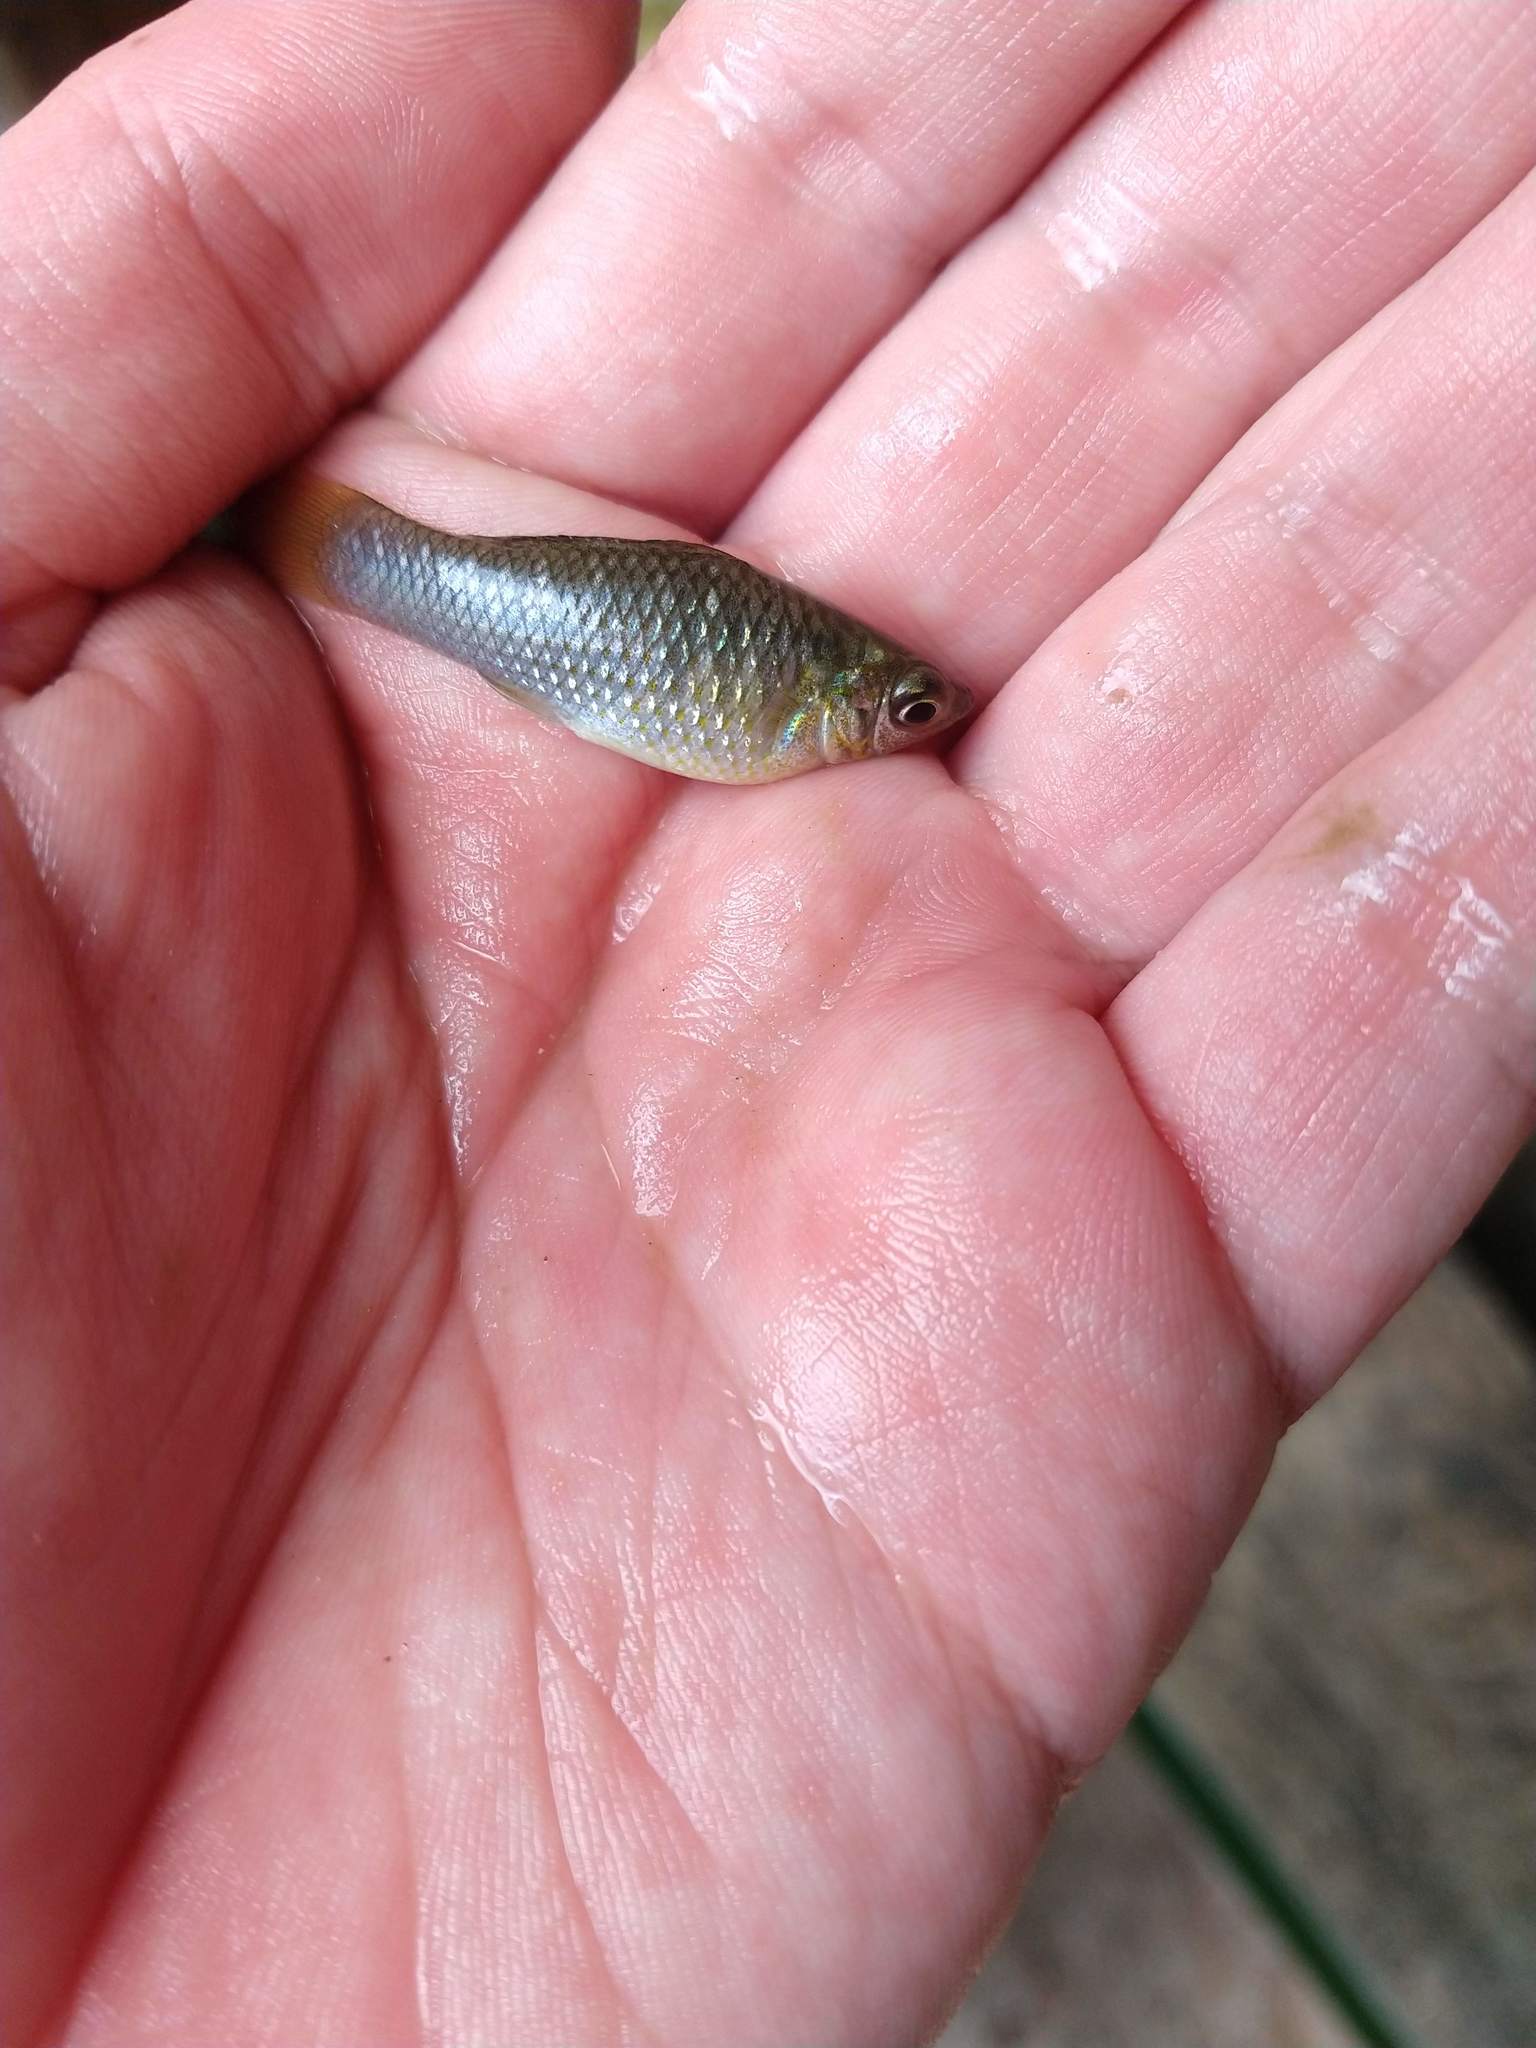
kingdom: Animalia
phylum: Chordata
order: Cyprinodontiformes
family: Poeciliidae
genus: Poecilia
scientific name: Poecilia mexicana
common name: Shortfin molly
